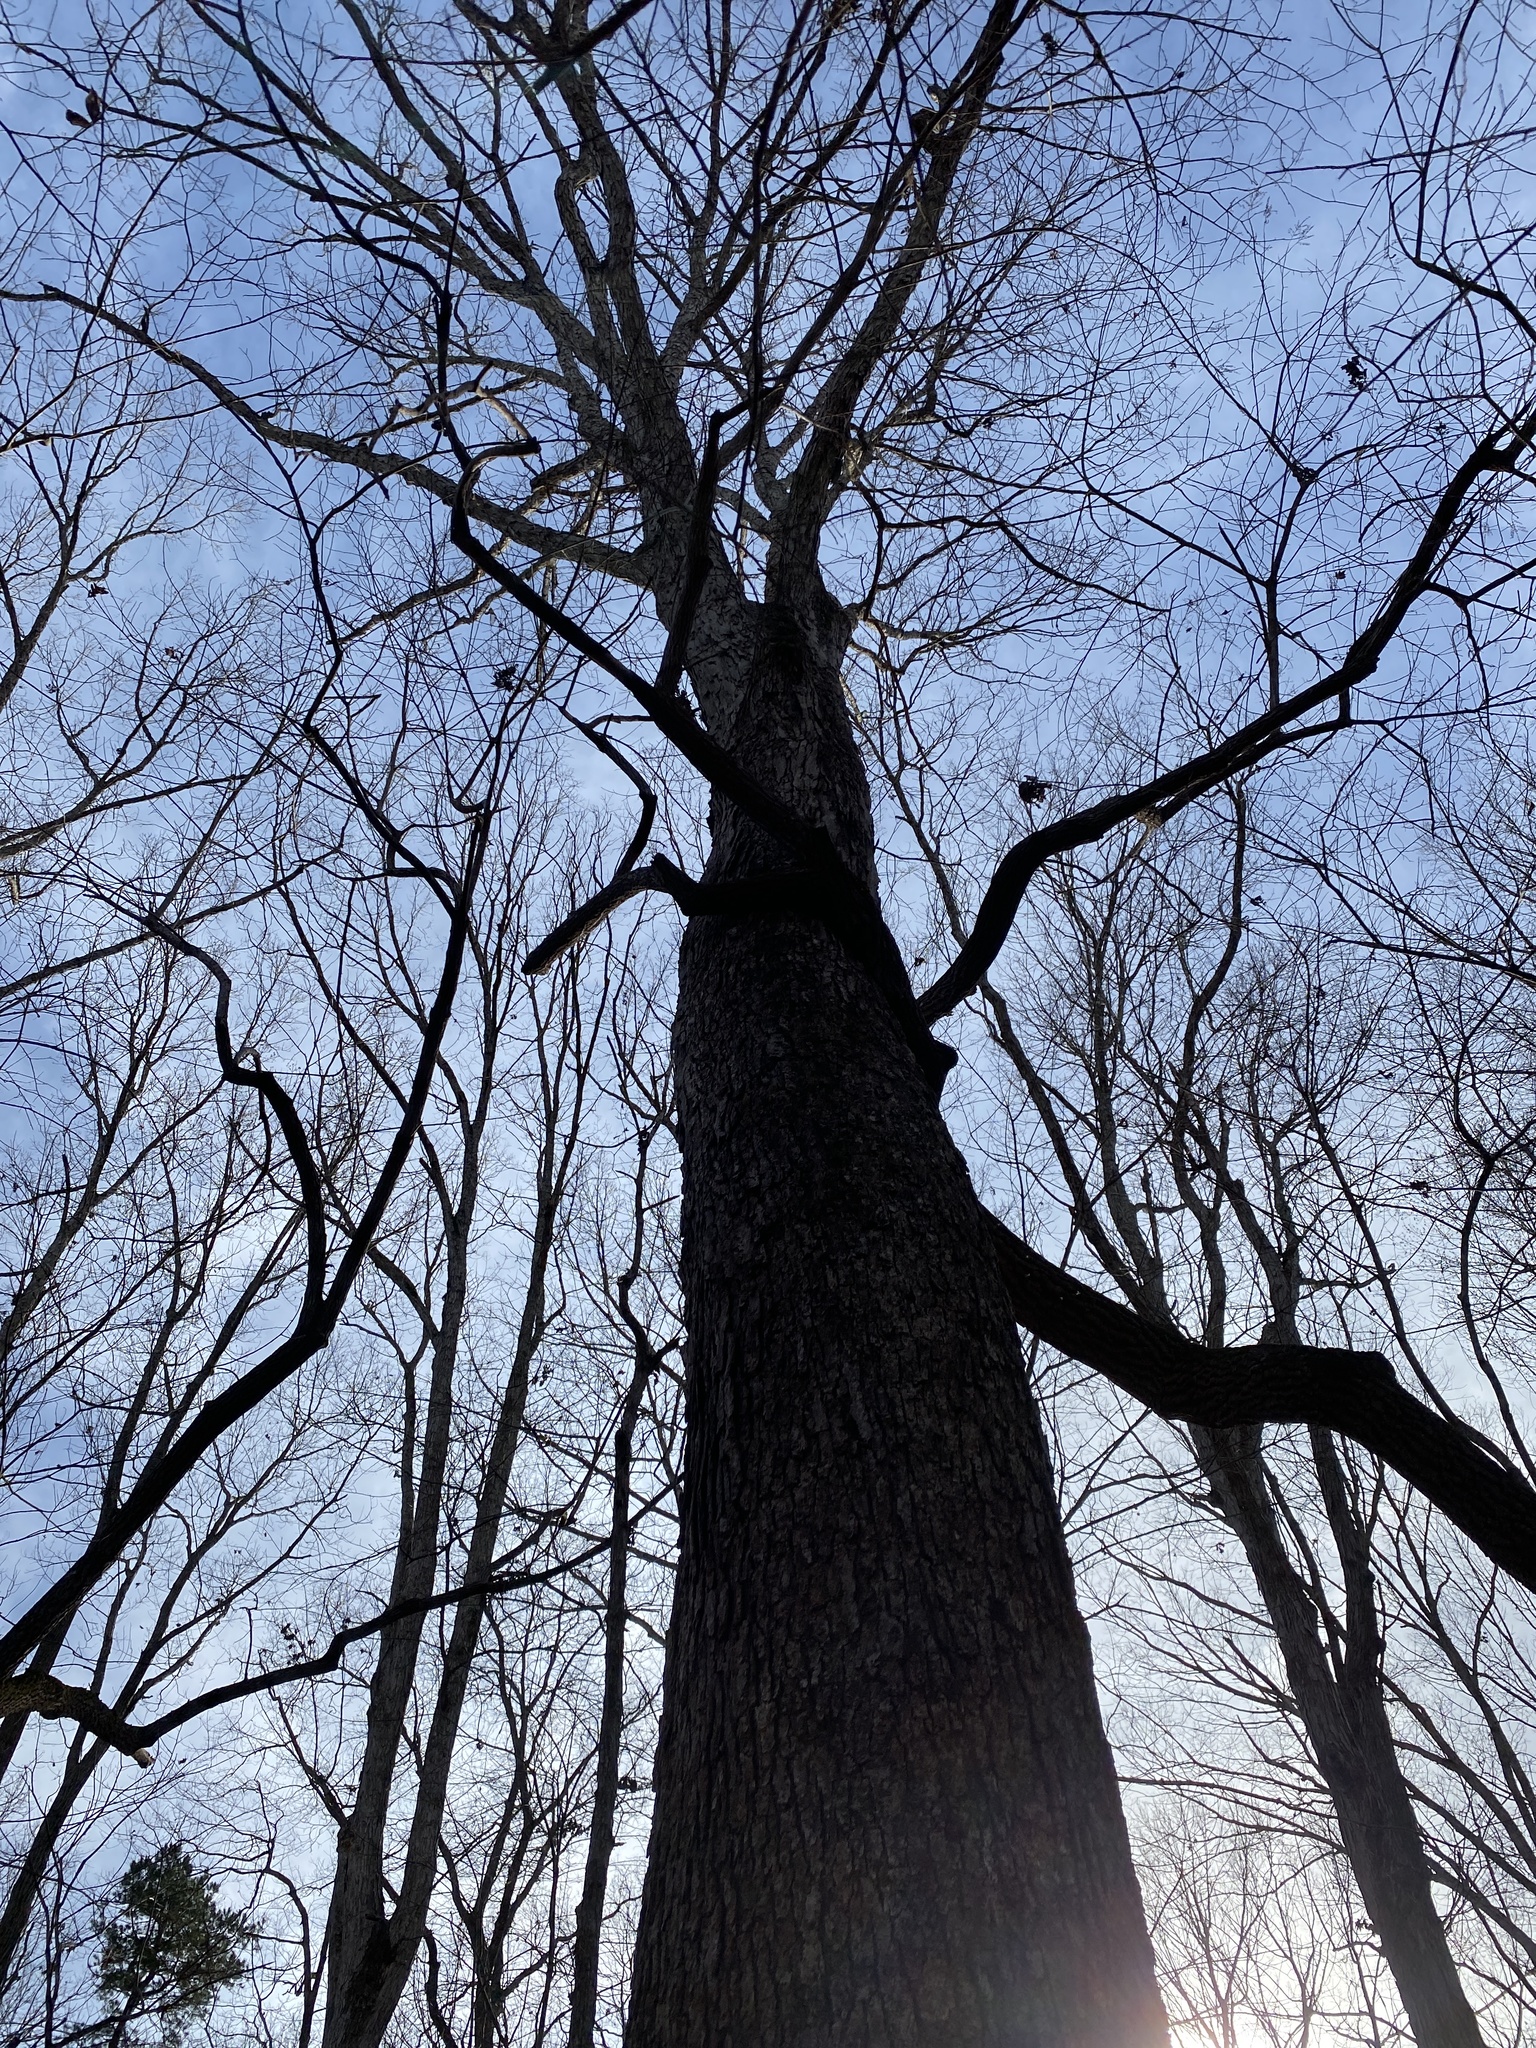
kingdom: Plantae
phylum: Tracheophyta
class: Magnoliopsida
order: Fagales
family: Fagaceae
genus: Quercus
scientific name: Quercus alba
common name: White oak
